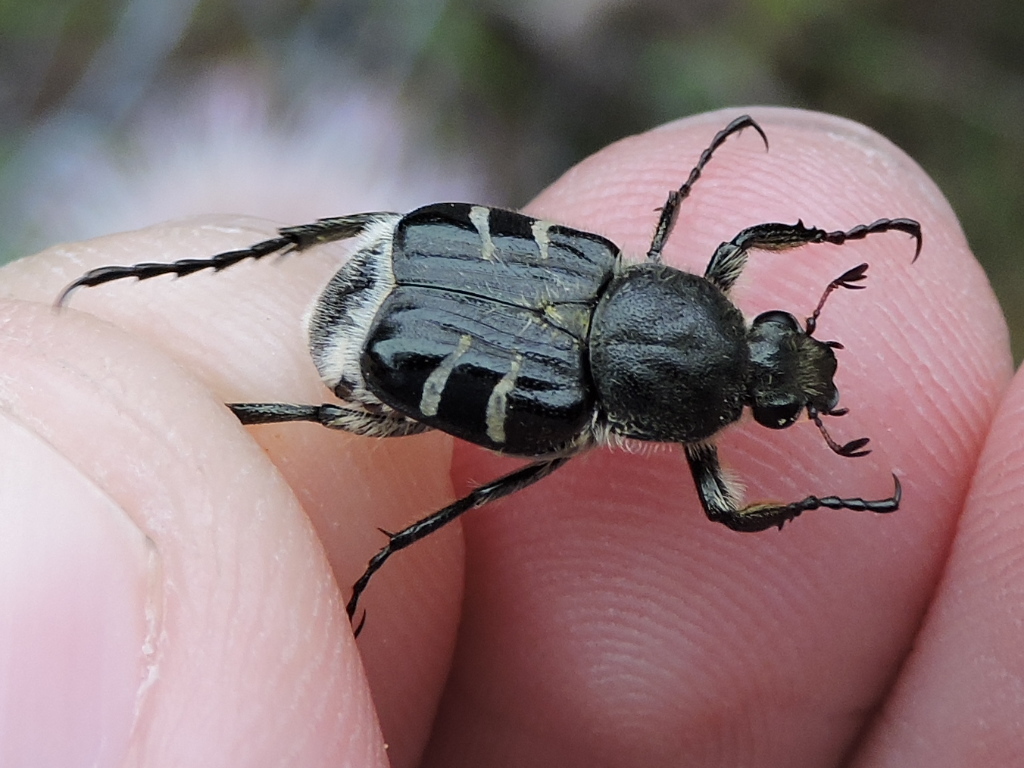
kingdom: Animalia
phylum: Arthropoda
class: Insecta
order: Coleoptera
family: Scarabaeidae
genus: Trichiotinus
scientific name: Trichiotinus texanus
